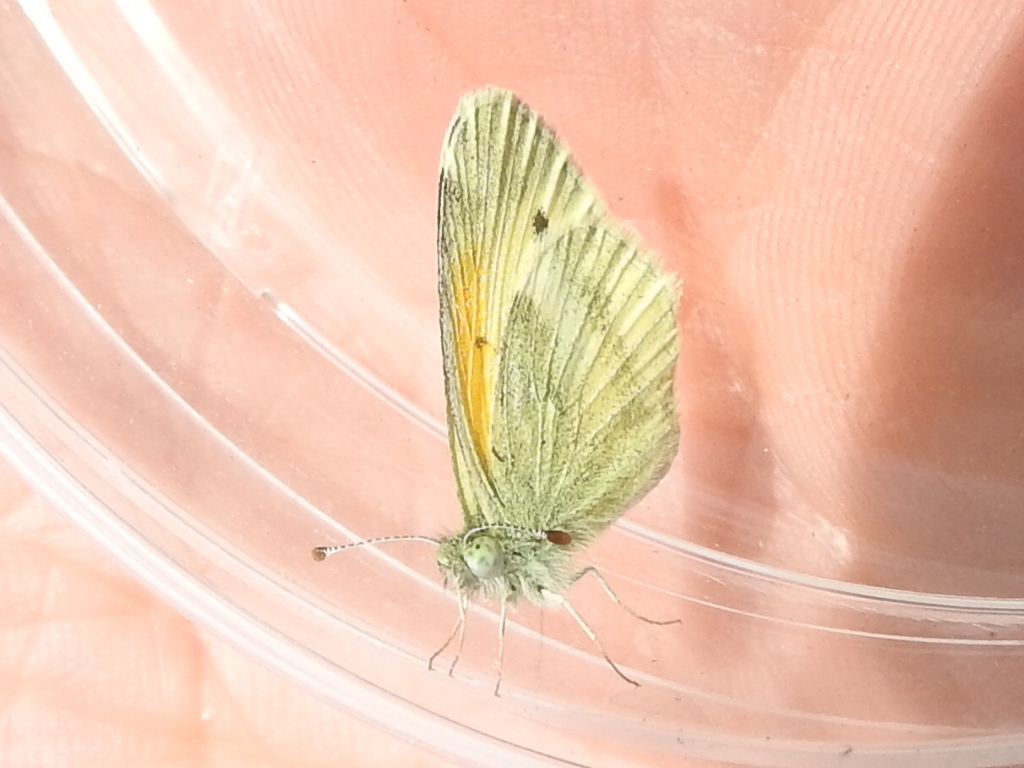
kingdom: Animalia
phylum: Arthropoda
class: Insecta
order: Lepidoptera
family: Pieridae
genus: Nathalis
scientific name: Nathalis iole
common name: Dainty sulphur
